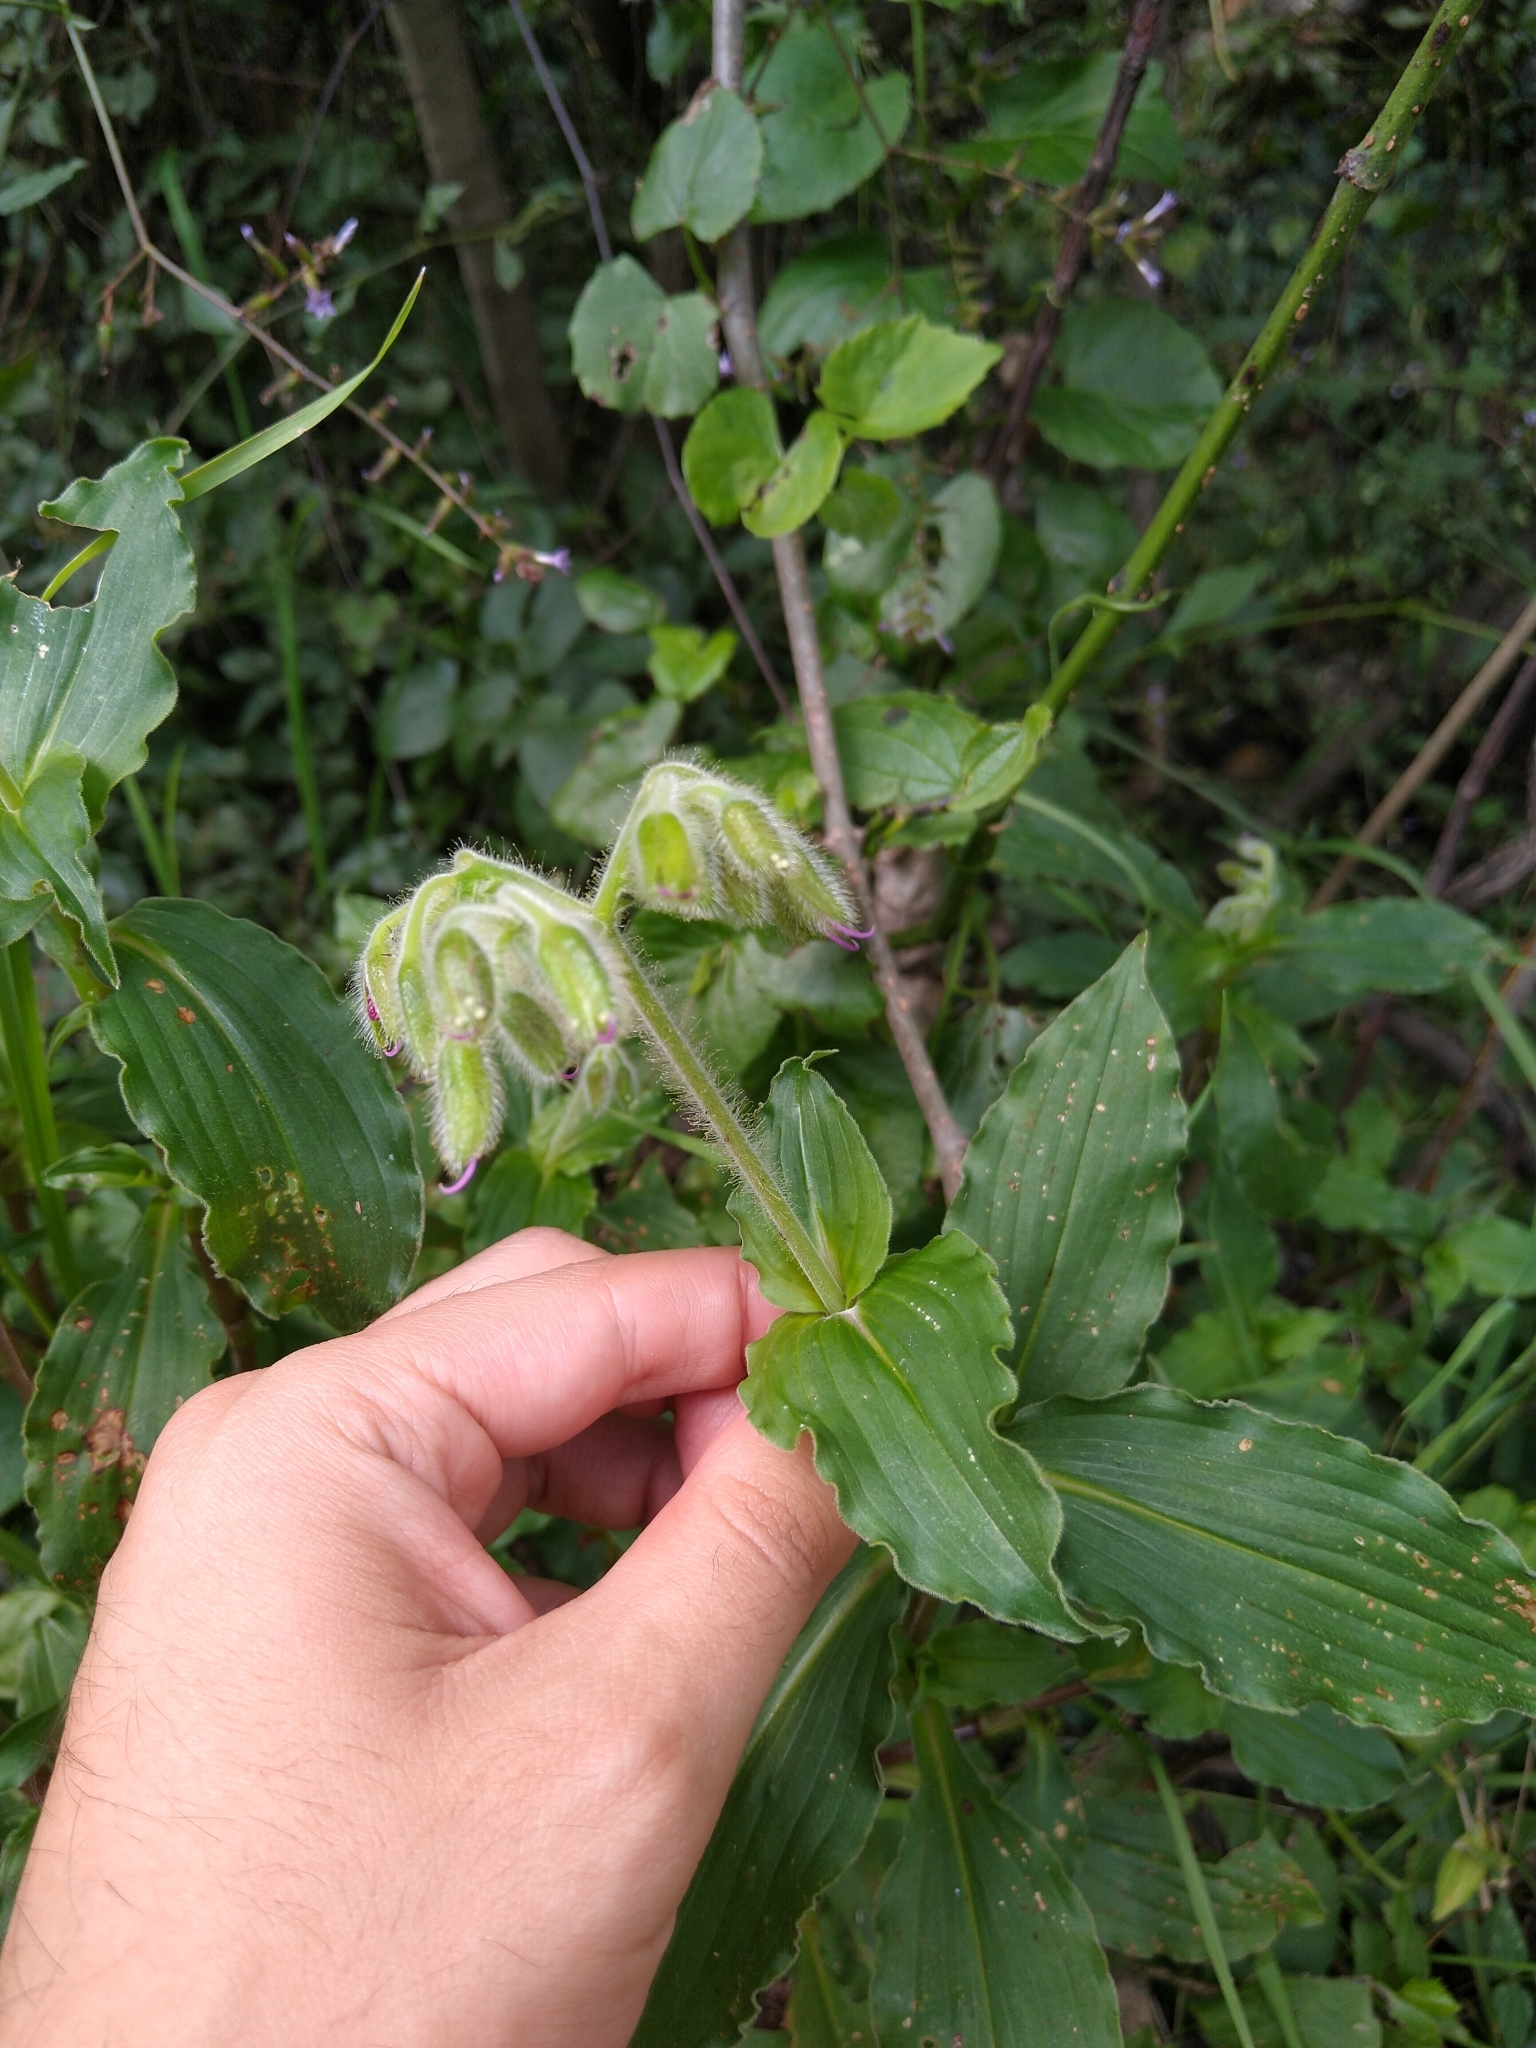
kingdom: Plantae
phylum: Tracheophyta
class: Liliopsida
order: Commelinales
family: Commelinaceae
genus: Tinantia
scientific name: Tinantia erecta
